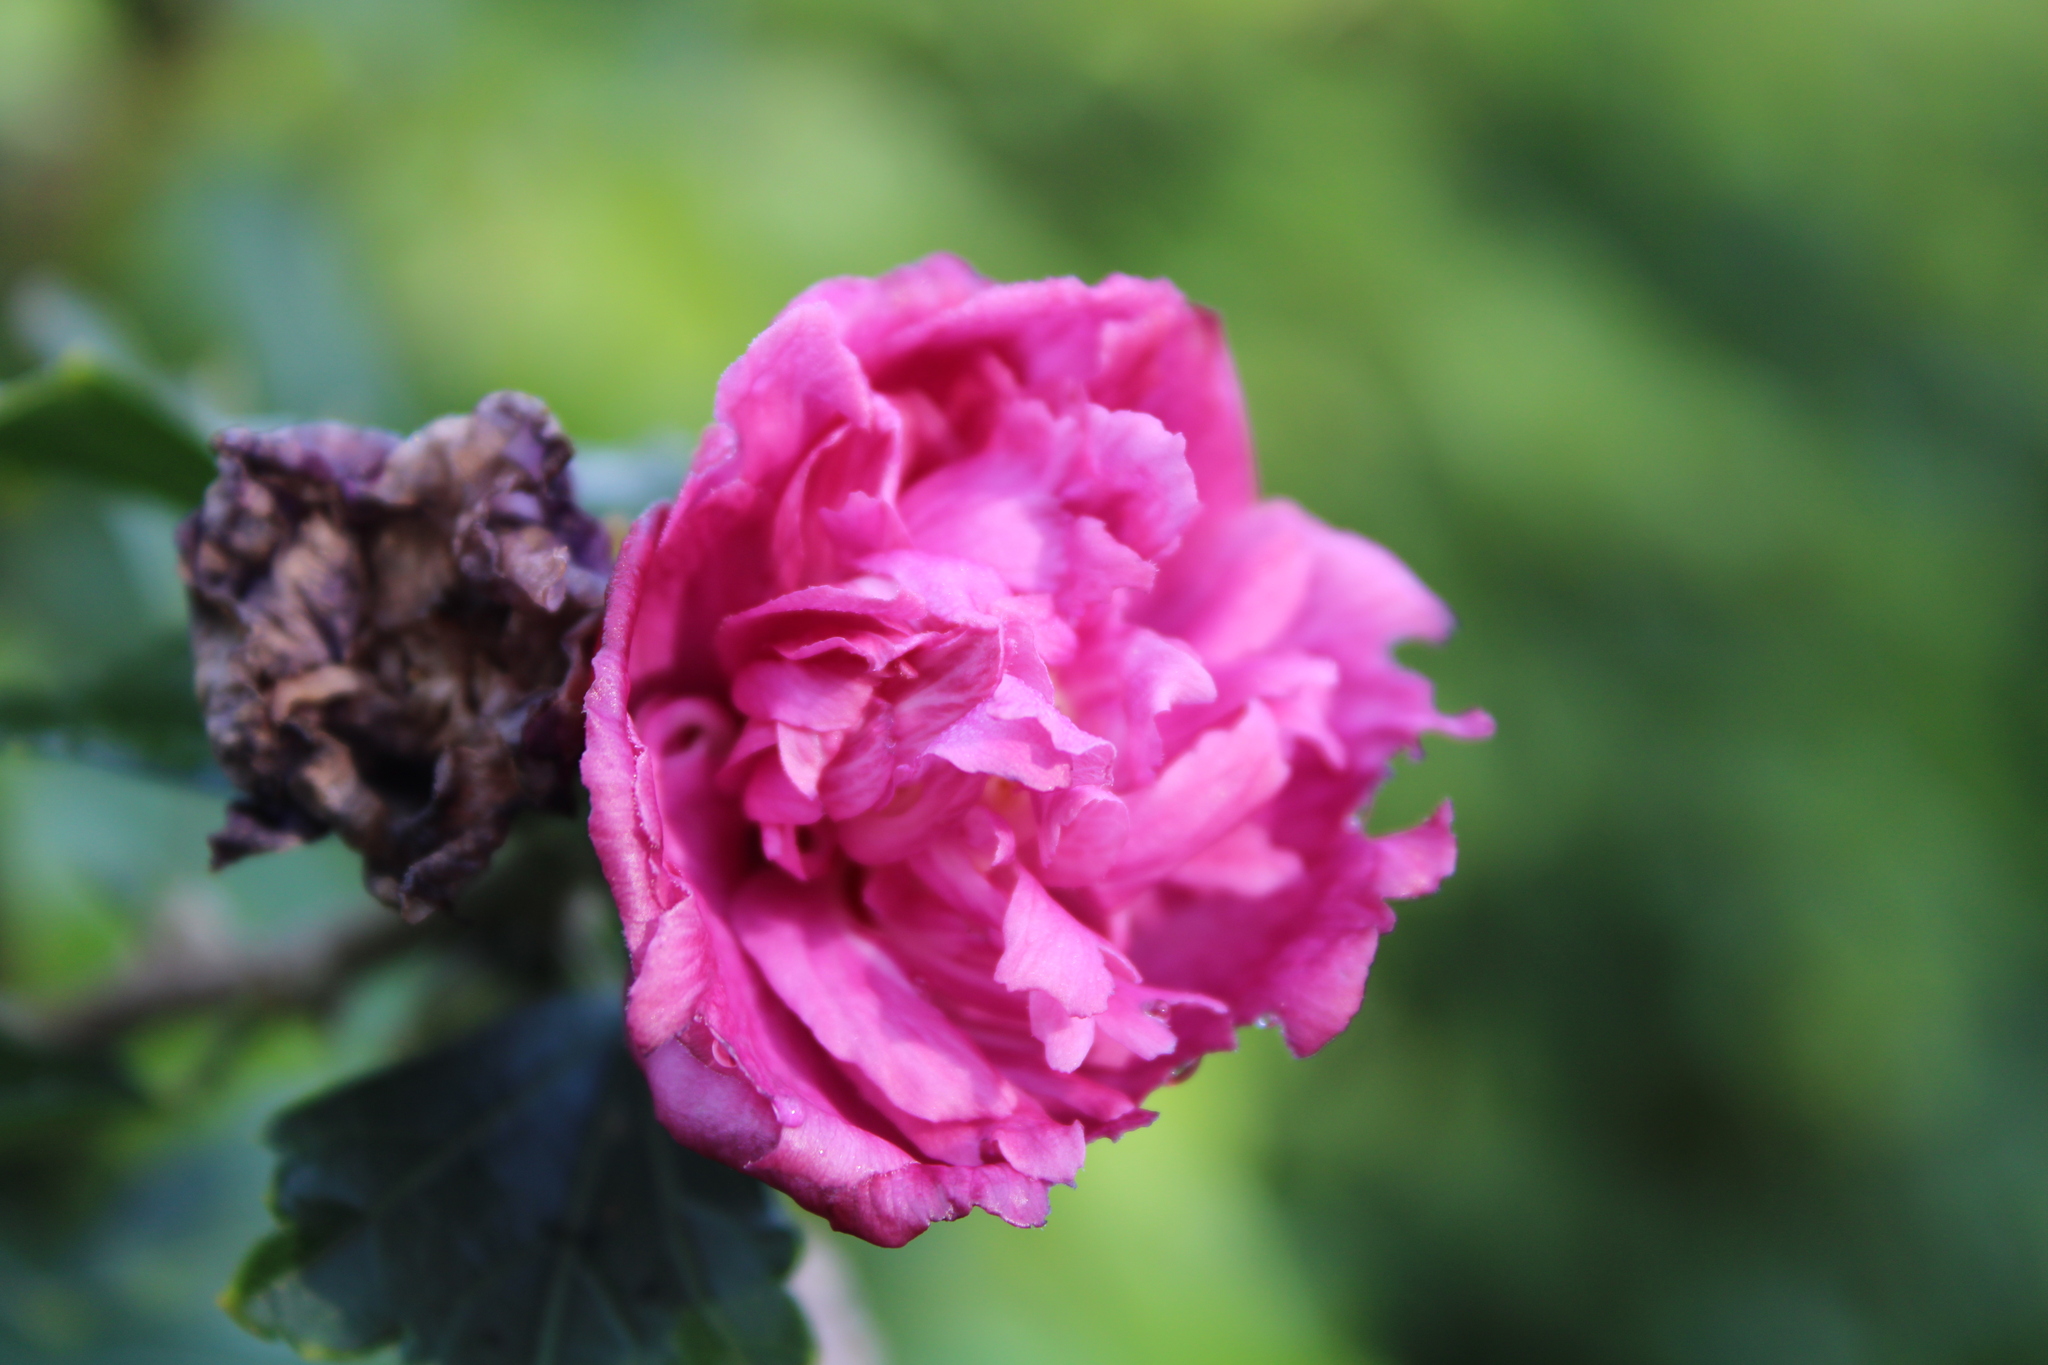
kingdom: Plantae
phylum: Tracheophyta
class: Magnoliopsida
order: Malvales
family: Malvaceae
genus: Hibiscus
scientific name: Hibiscus syriacus
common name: Syrian ketmia
